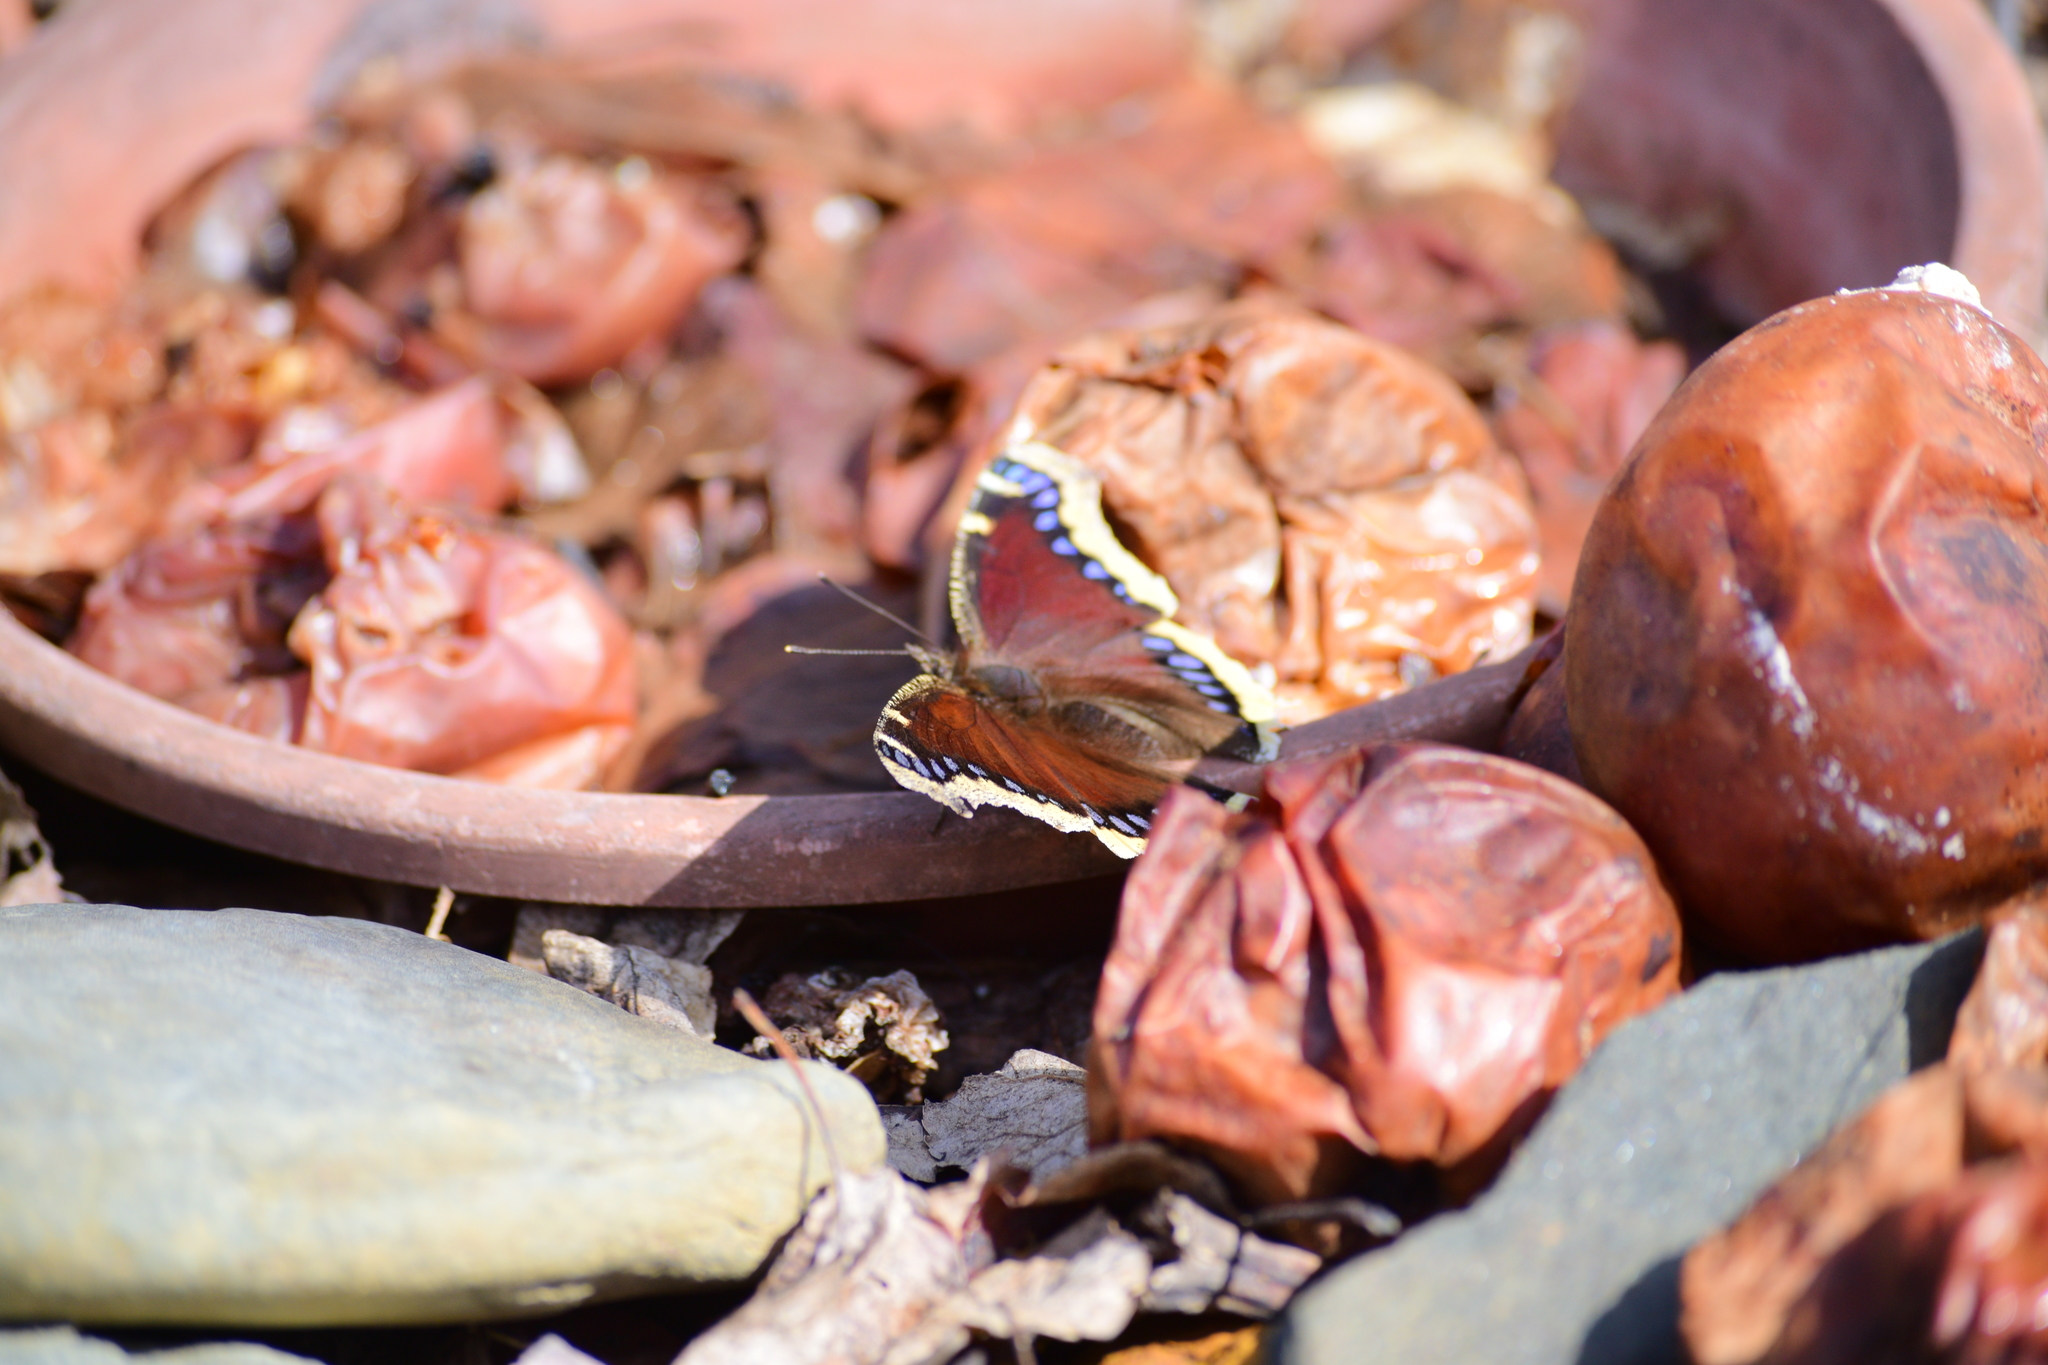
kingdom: Animalia
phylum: Arthropoda
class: Insecta
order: Lepidoptera
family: Nymphalidae
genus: Nymphalis
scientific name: Nymphalis antiopa
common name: Camberwell beauty
